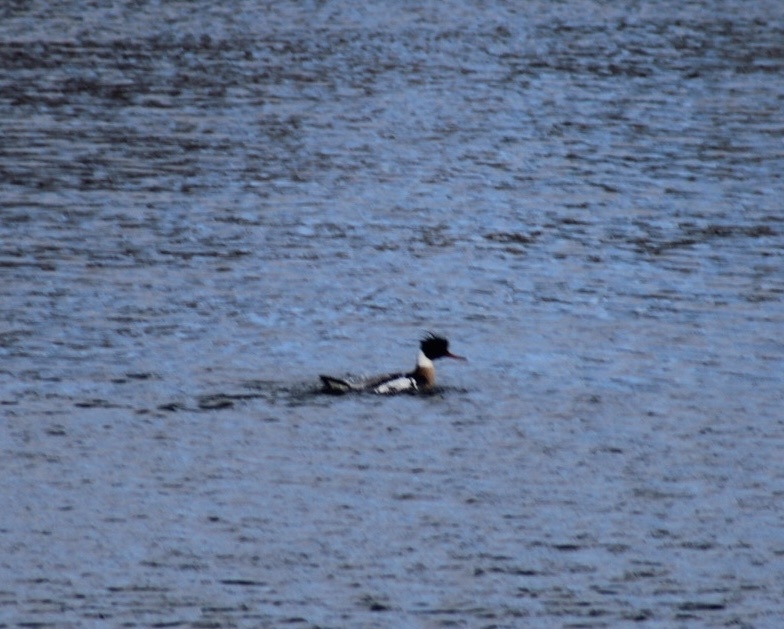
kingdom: Animalia
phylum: Chordata
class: Aves
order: Anseriformes
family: Anatidae
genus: Mergus
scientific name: Mergus serrator
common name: Red-breasted merganser
